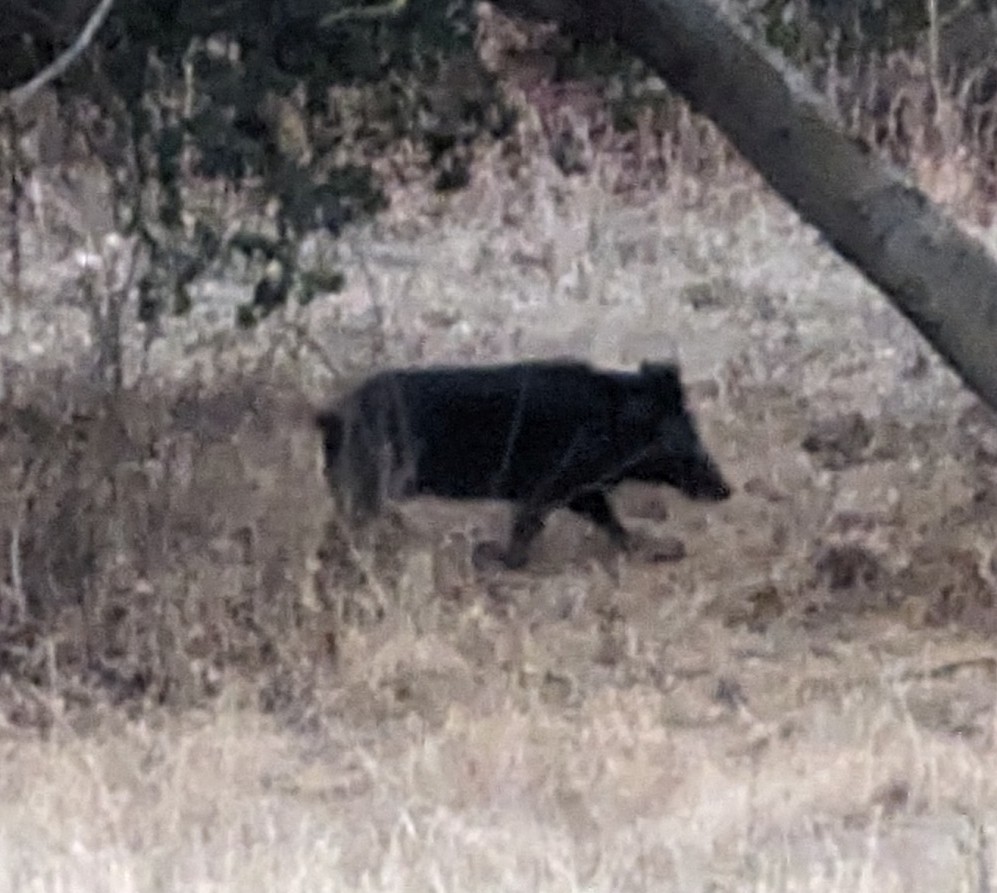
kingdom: Animalia
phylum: Chordata
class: Mammalia
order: Artiodactyla
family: Suidae
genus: Sus
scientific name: Sus scrofa
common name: Wild boar
